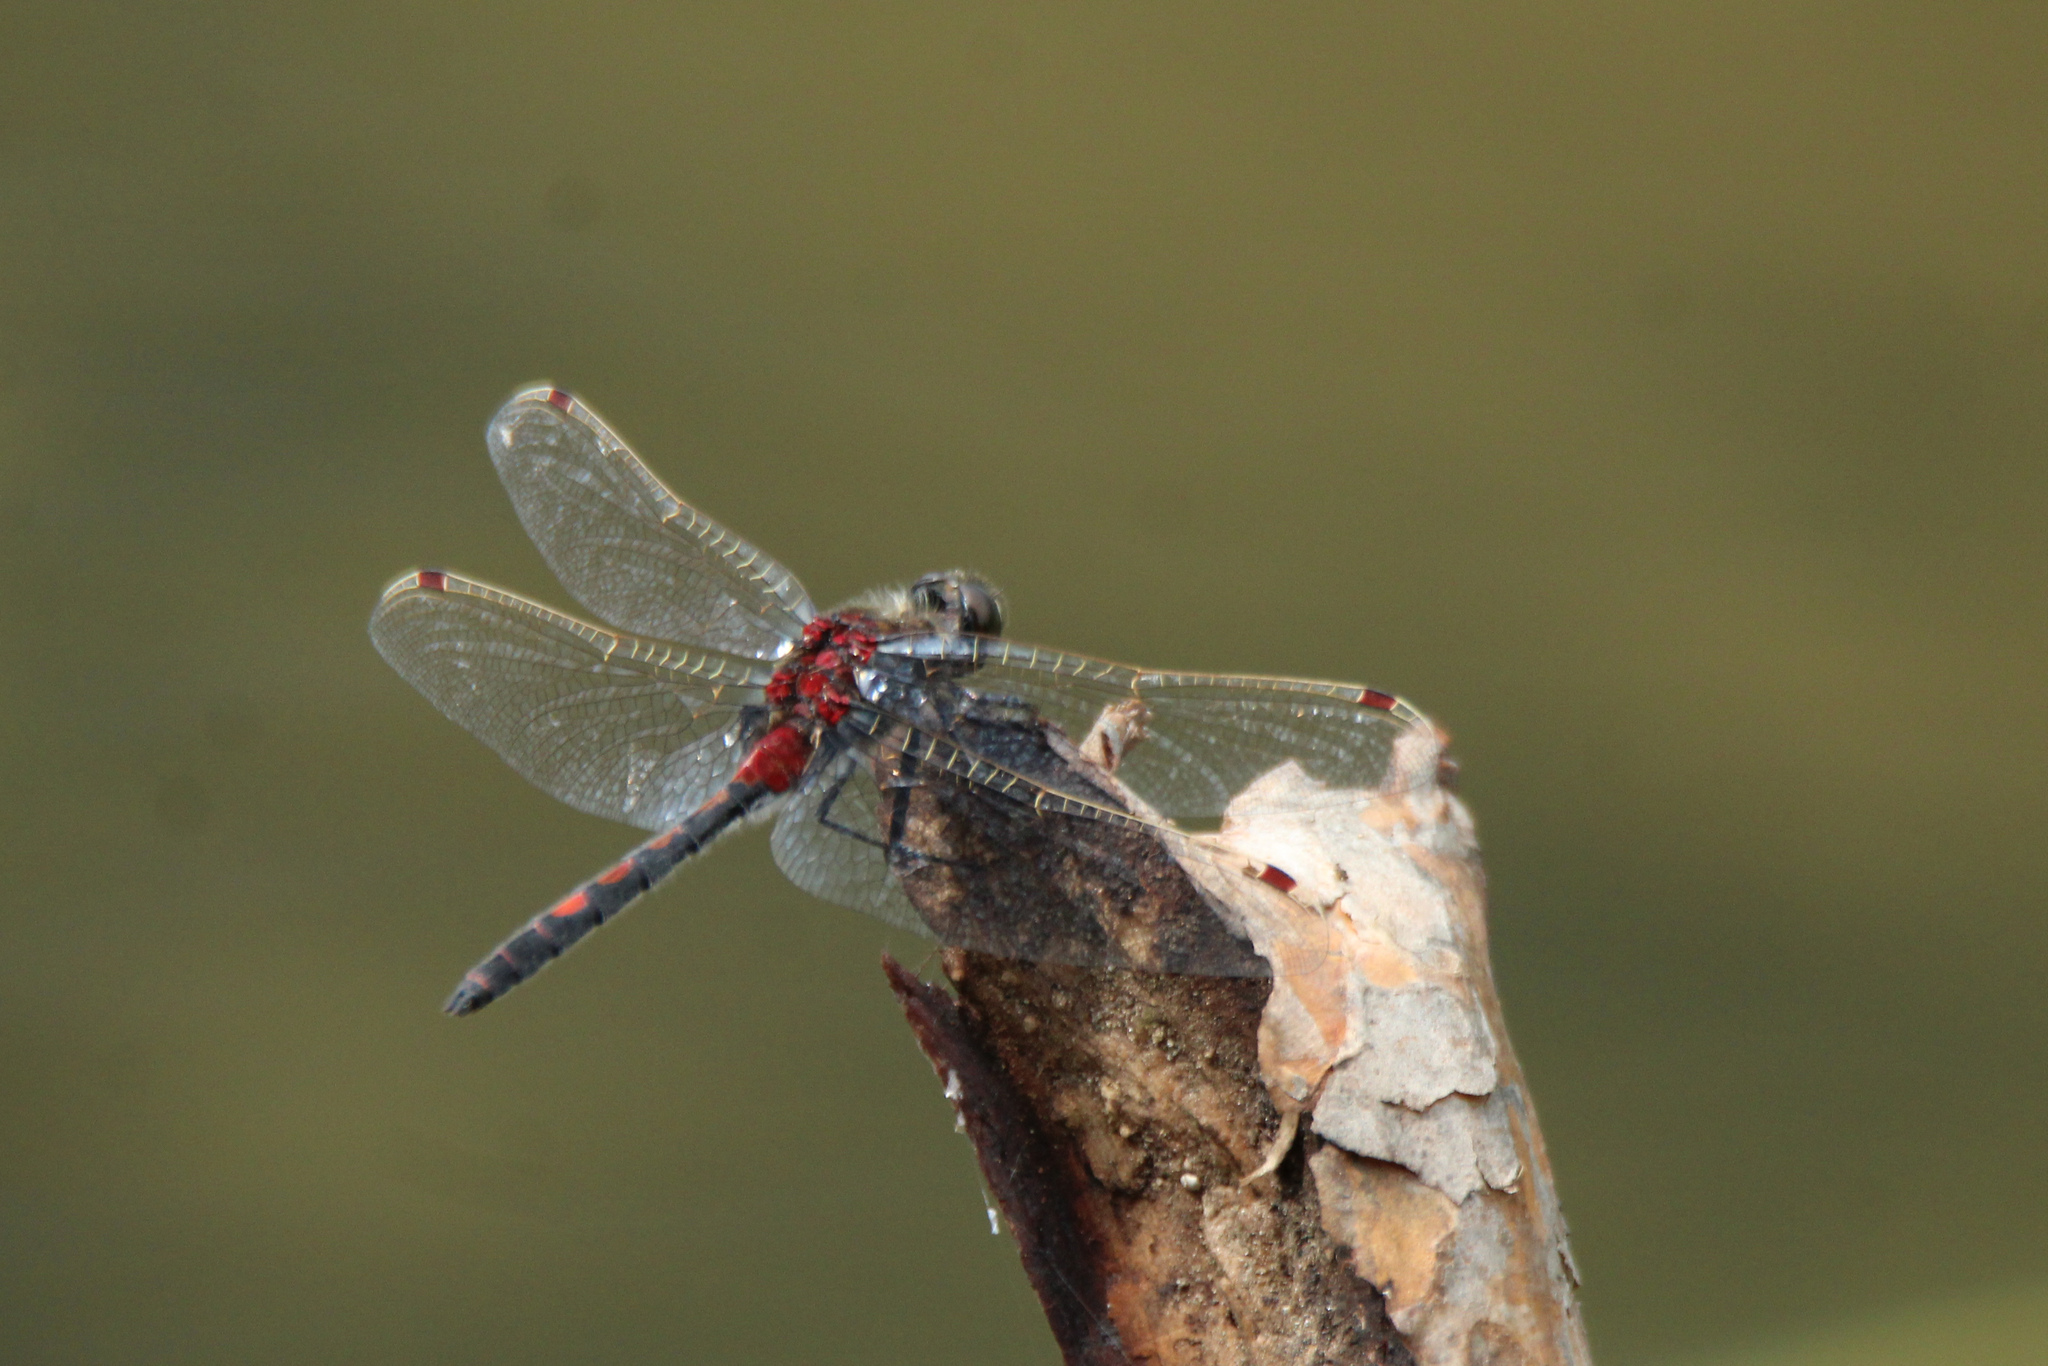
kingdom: Animalia
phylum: Arthropoda
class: Insecta
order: Odonata
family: Libellulidae
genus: Leucorrhinia
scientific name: Leucorrhinia rubicunda
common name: Ruby whiteface
